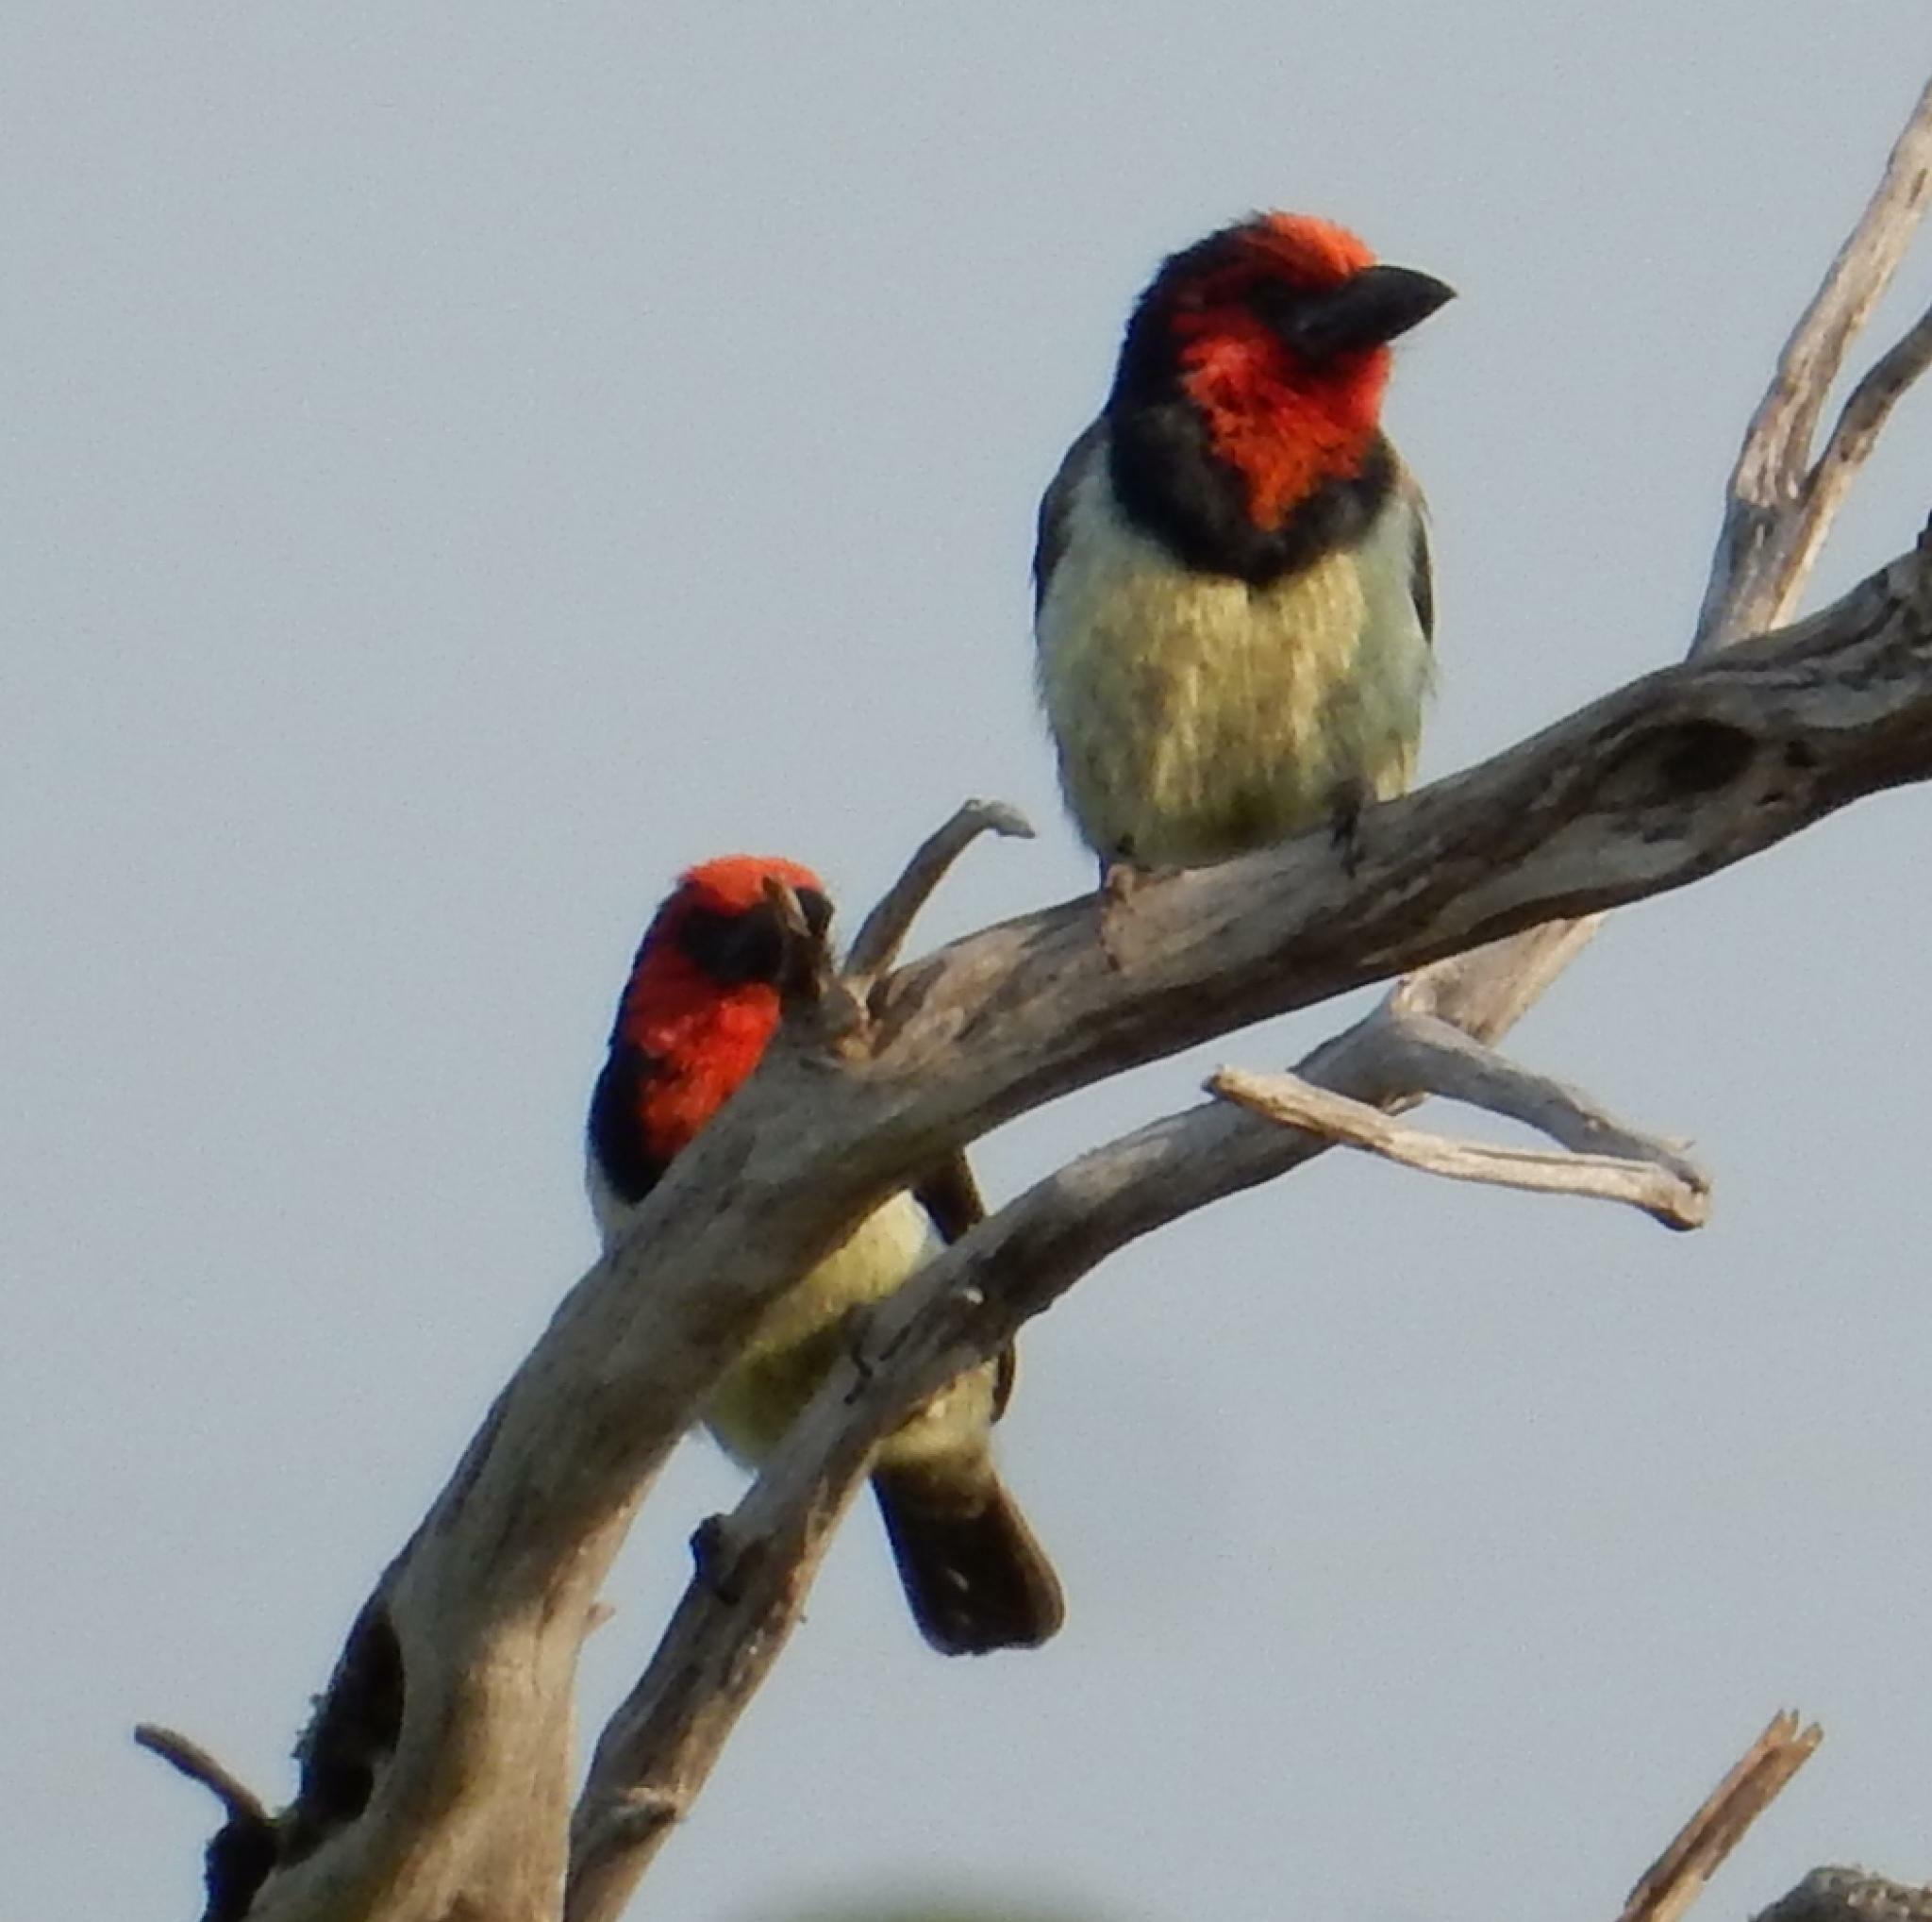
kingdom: Animalia
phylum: Chordata
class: Aves
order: Piciformes
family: Lybiidae
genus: Lybius
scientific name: Lybius torquatus
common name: Black-collared barbet
